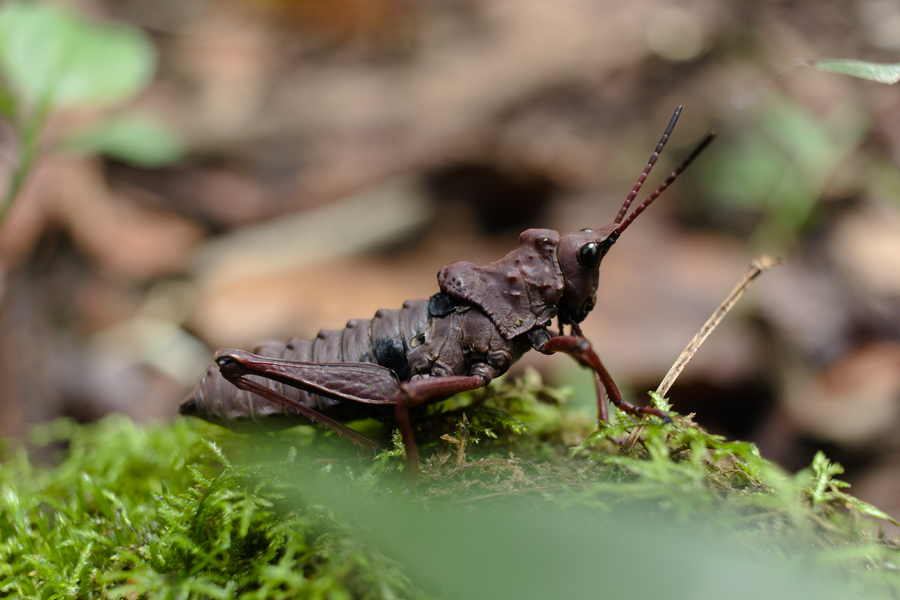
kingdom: Animalia
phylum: Arthropoda
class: Insecta
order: Orthoptera
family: Pyrgomorphidae
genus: Parapetasia
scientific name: Parapetasia femorata
